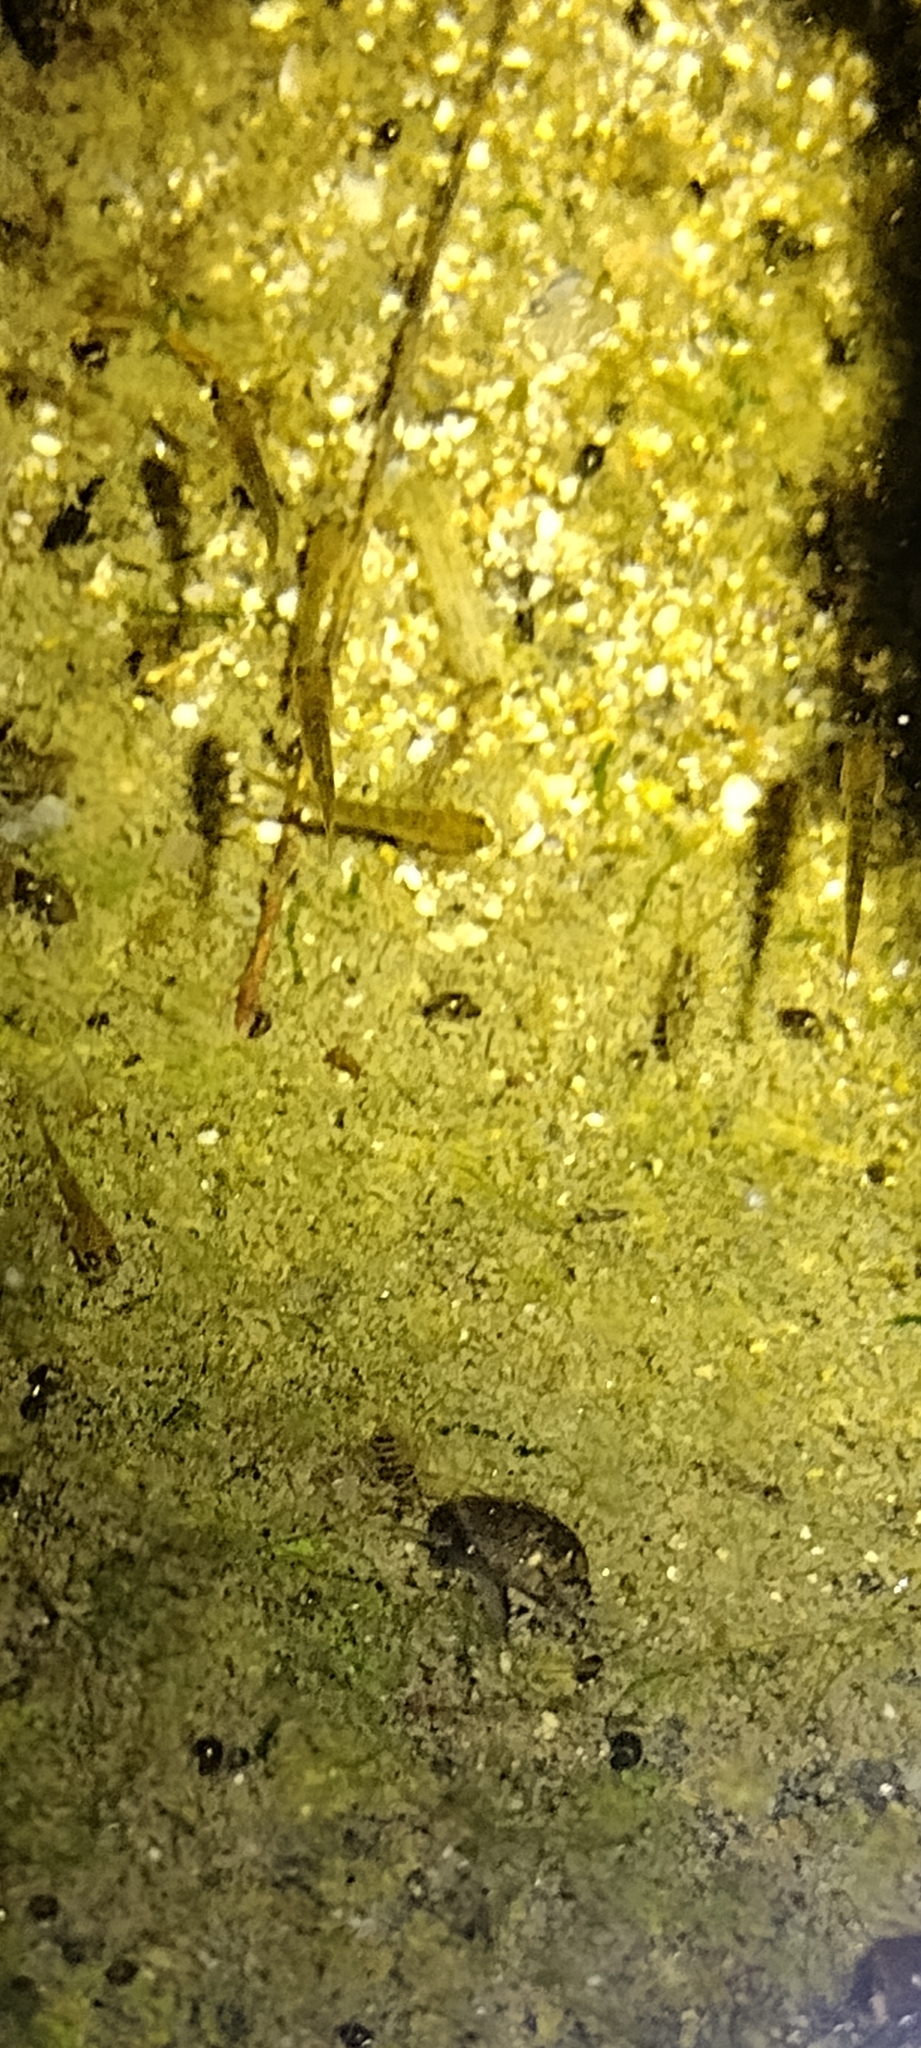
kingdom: Animalia
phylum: Chordata
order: Gasterosteiformes
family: Gasterosteidae
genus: Gasterosteus
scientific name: Gasterosteus aculeatus
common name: Three-spined stickleback
